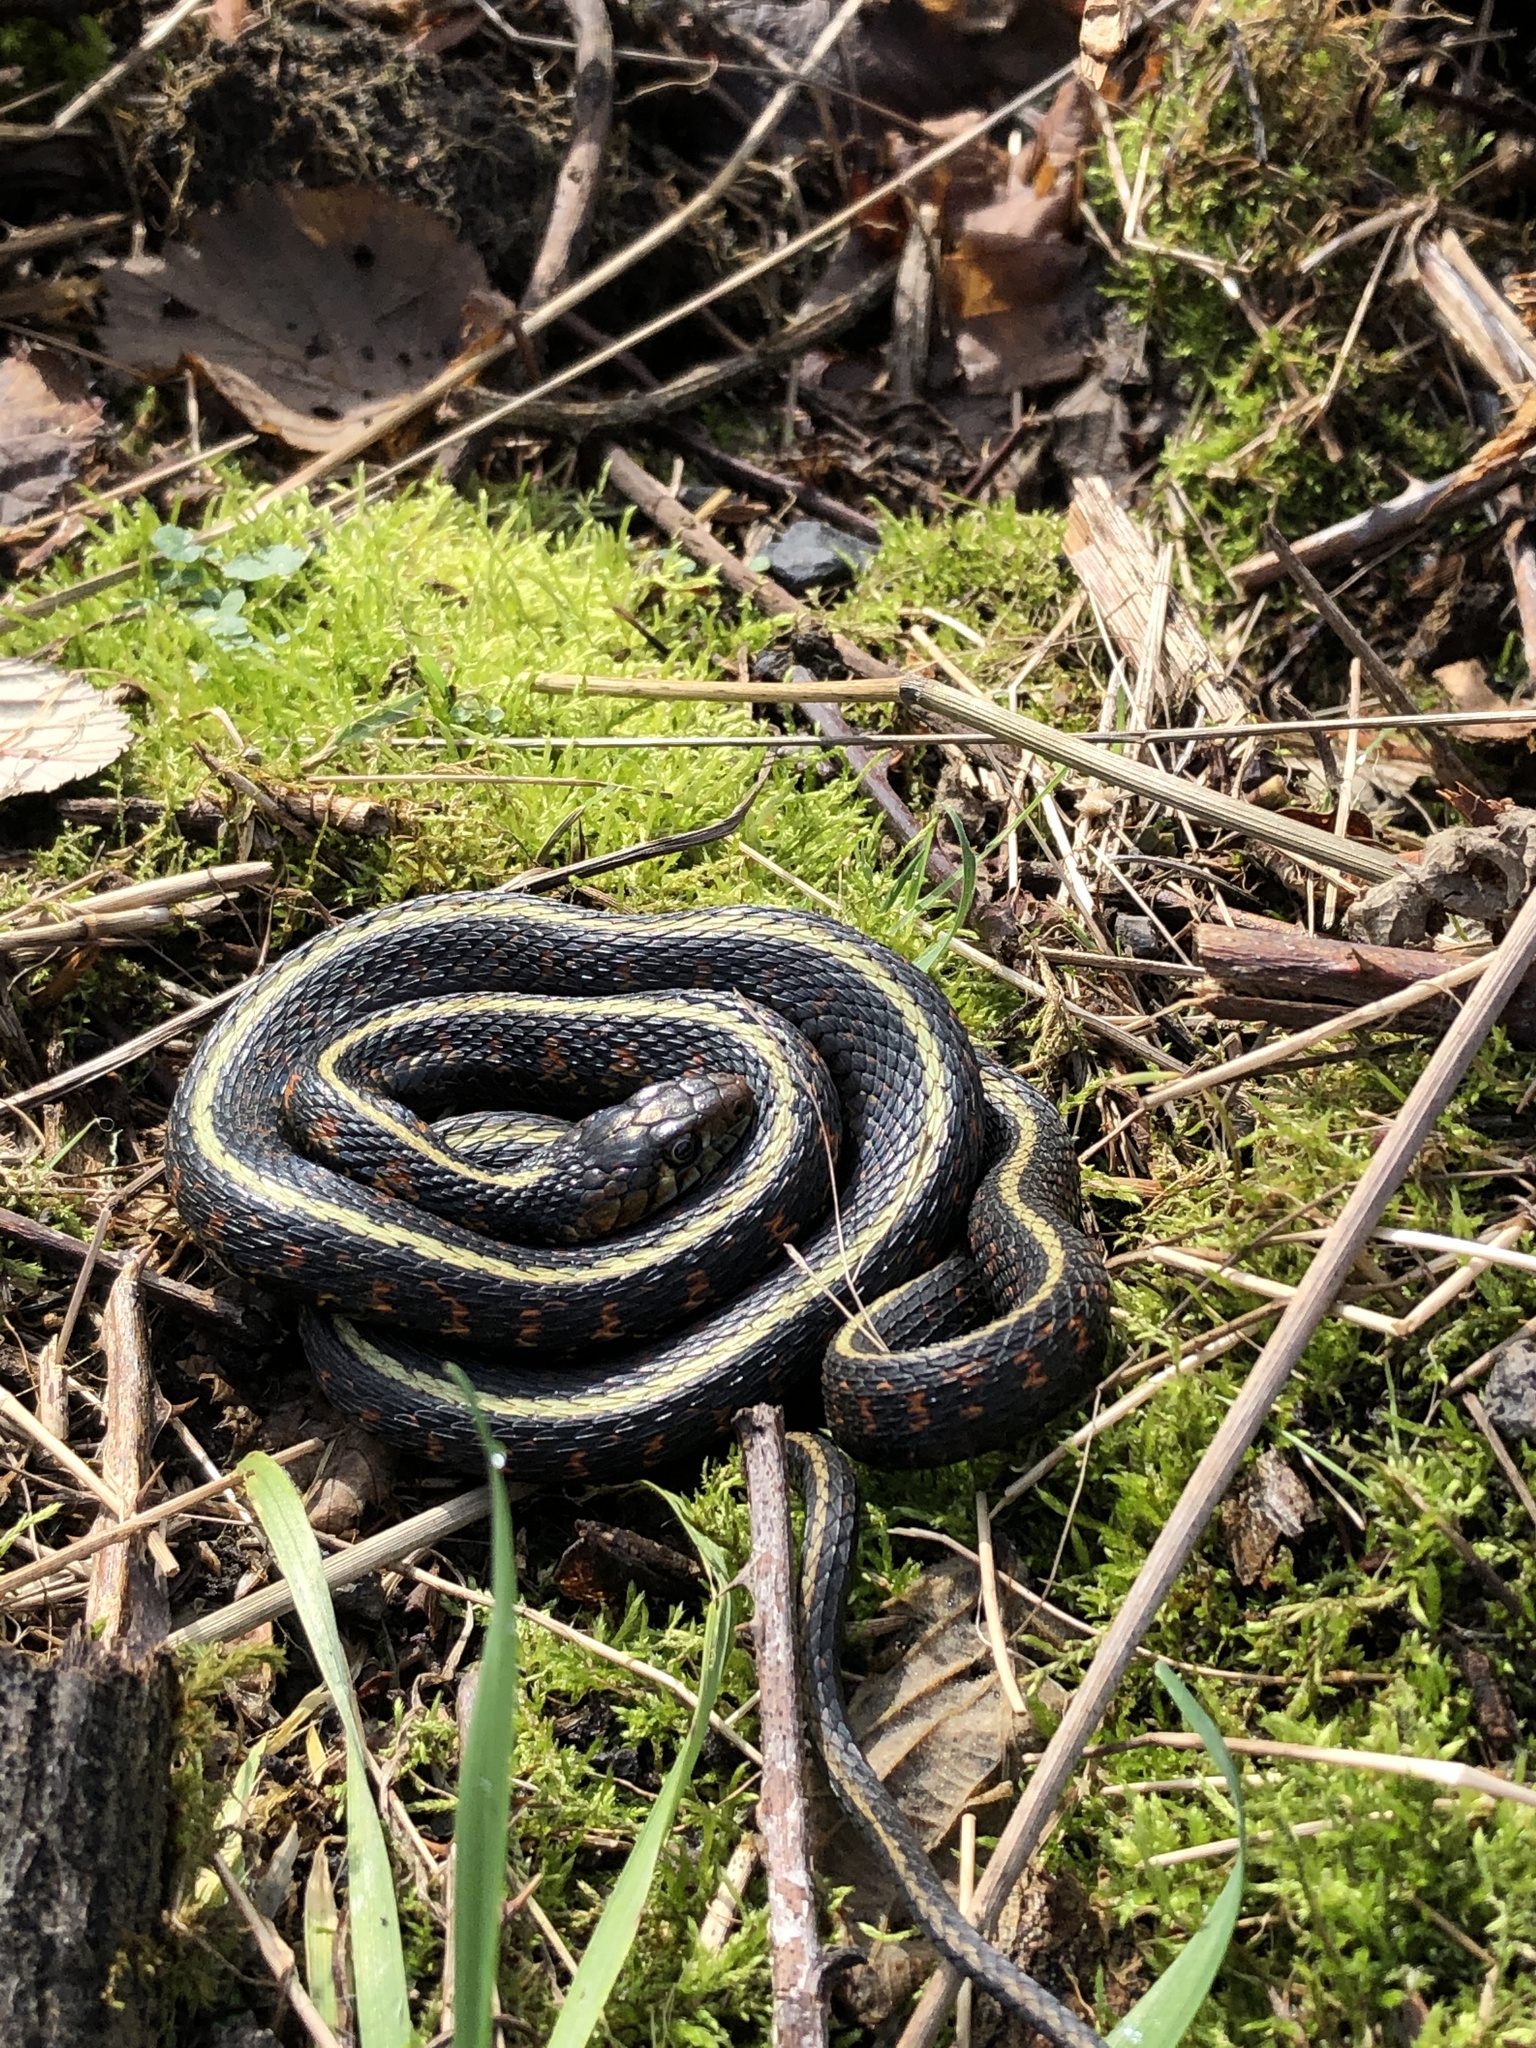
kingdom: Animalia
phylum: Chordata
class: Squamata
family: Colubridae
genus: Thamnophis
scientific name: Thamnophis sirtalis
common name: Common garter snake
